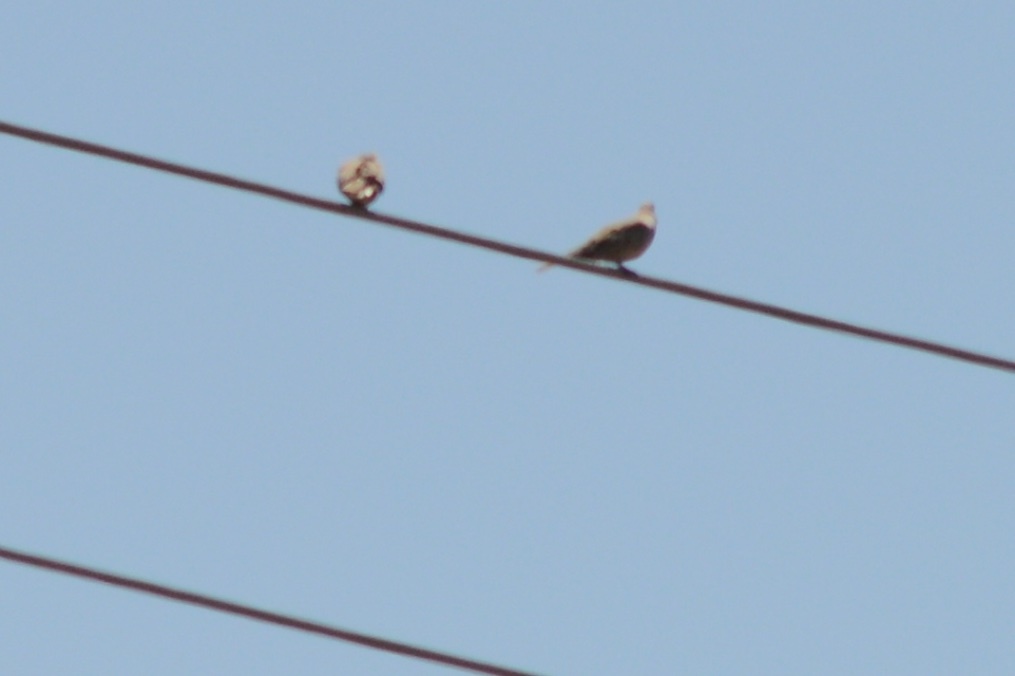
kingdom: Animalia
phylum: Chordata
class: Aves
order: Columbiformes
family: Columbidae
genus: Zenaida
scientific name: Zenaida macroura
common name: Mourning dove
